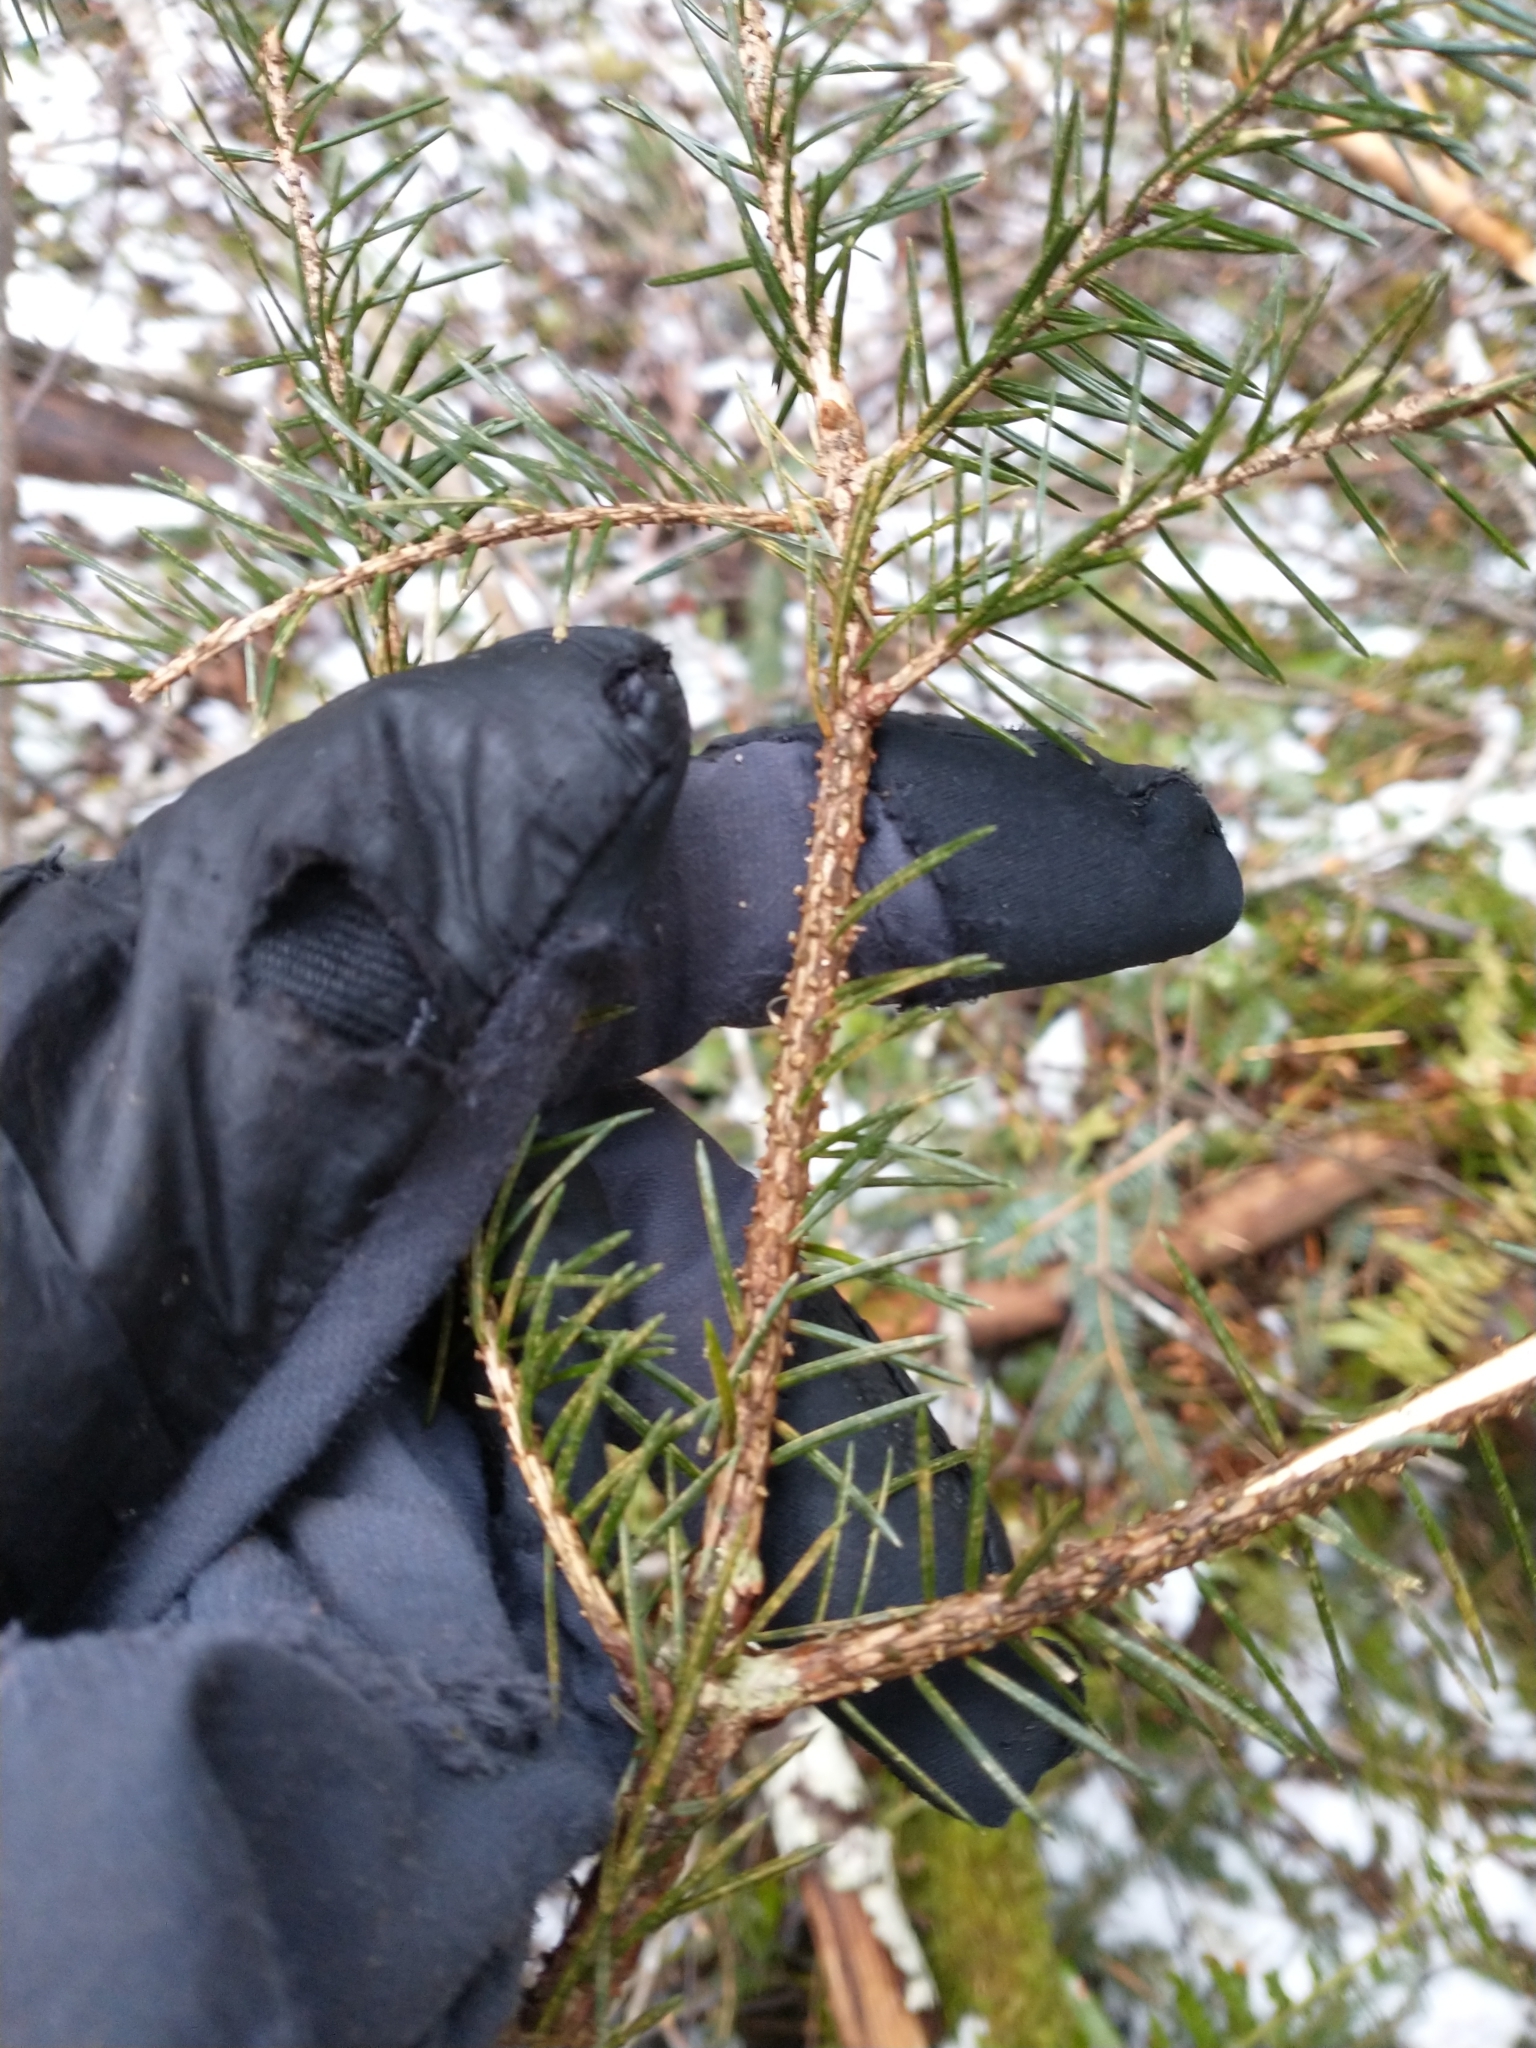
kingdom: Plantae
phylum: Tracheophyta
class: Pinopsida
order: Pinales
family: Pinaceae
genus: Picea
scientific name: Picea sitchensis
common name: Sitka spruce
